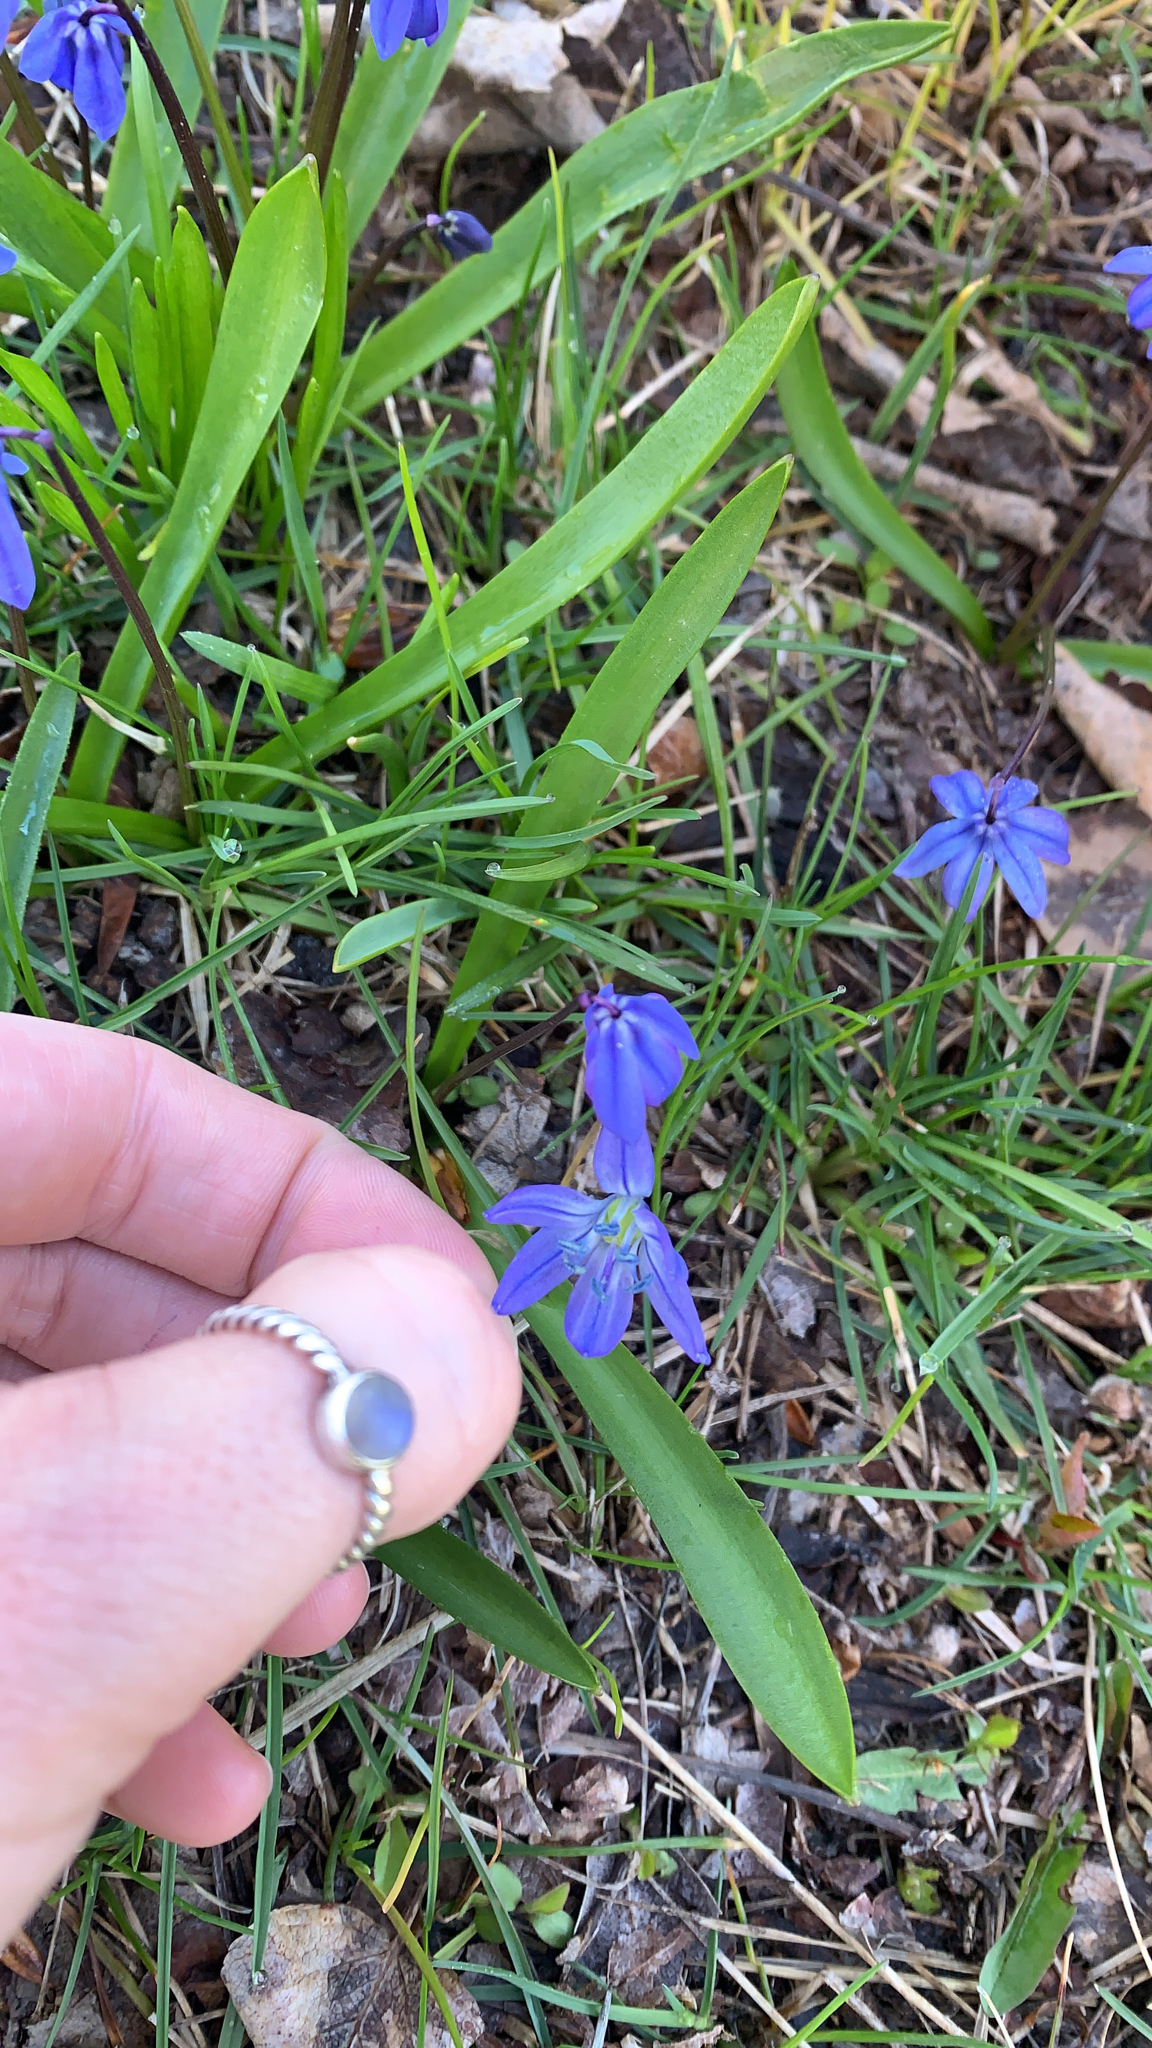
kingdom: Plantae
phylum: Tracheophyta
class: Liliopsida
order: Asparagales
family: Asparagaceae
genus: Scilla
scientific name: Scilla siberica
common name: Siberian squill
